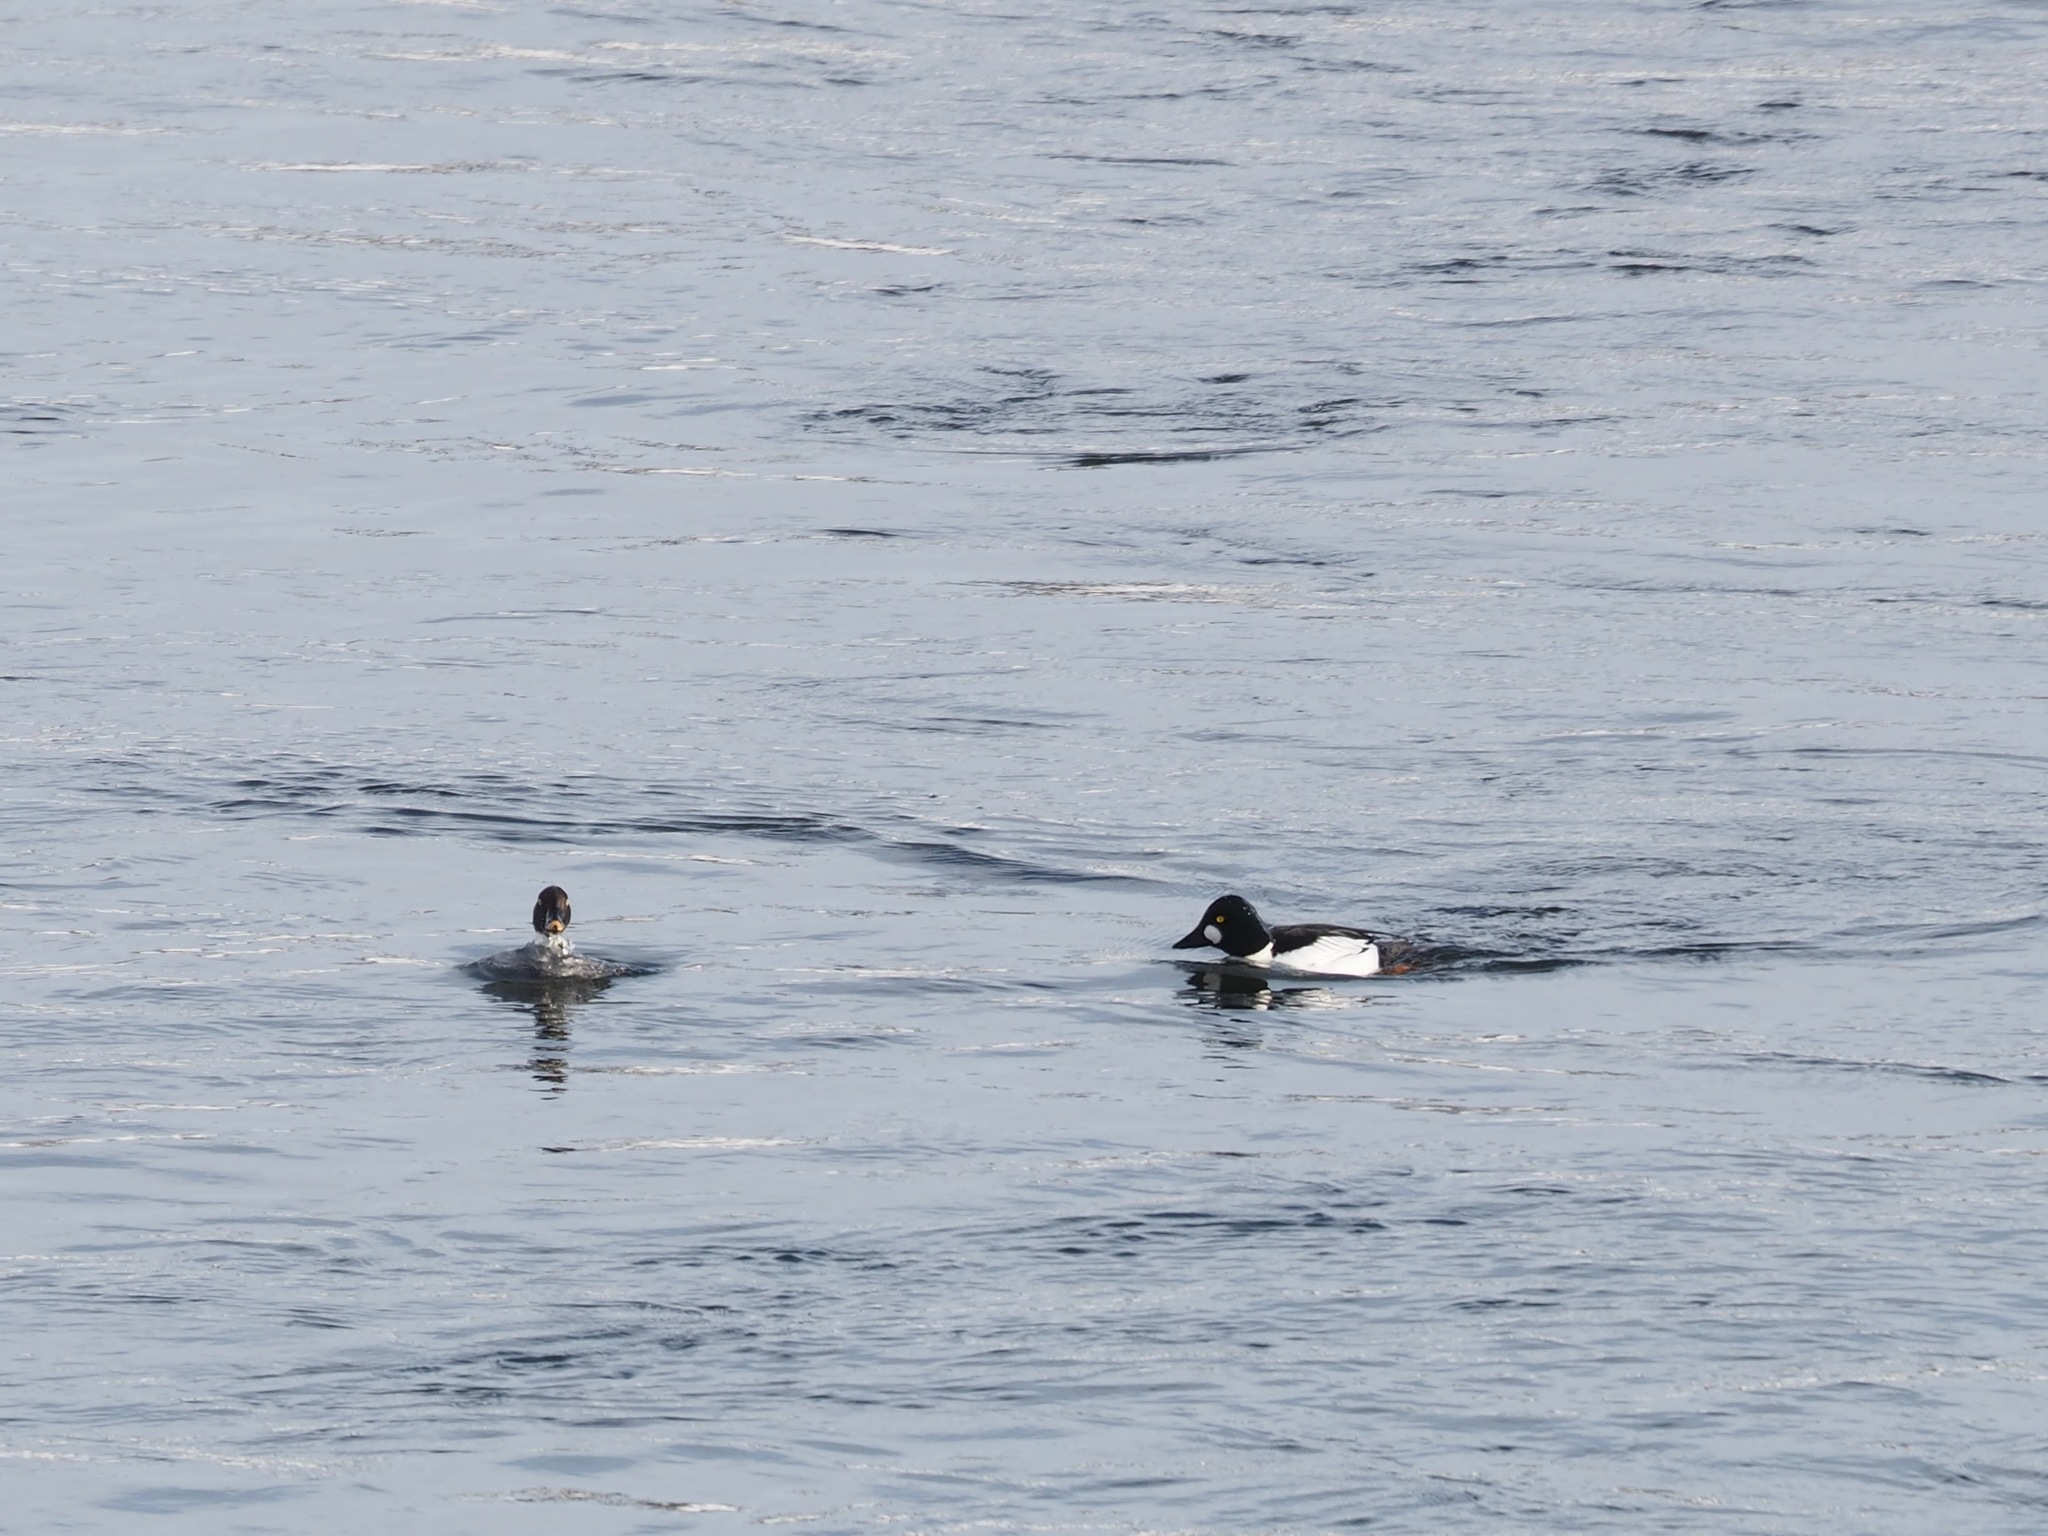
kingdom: Animalia
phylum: Chordata
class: Aves
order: Anseriformes
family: Anatidae
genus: Bucephala
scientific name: Bucephala clangula
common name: Common goldeneye
